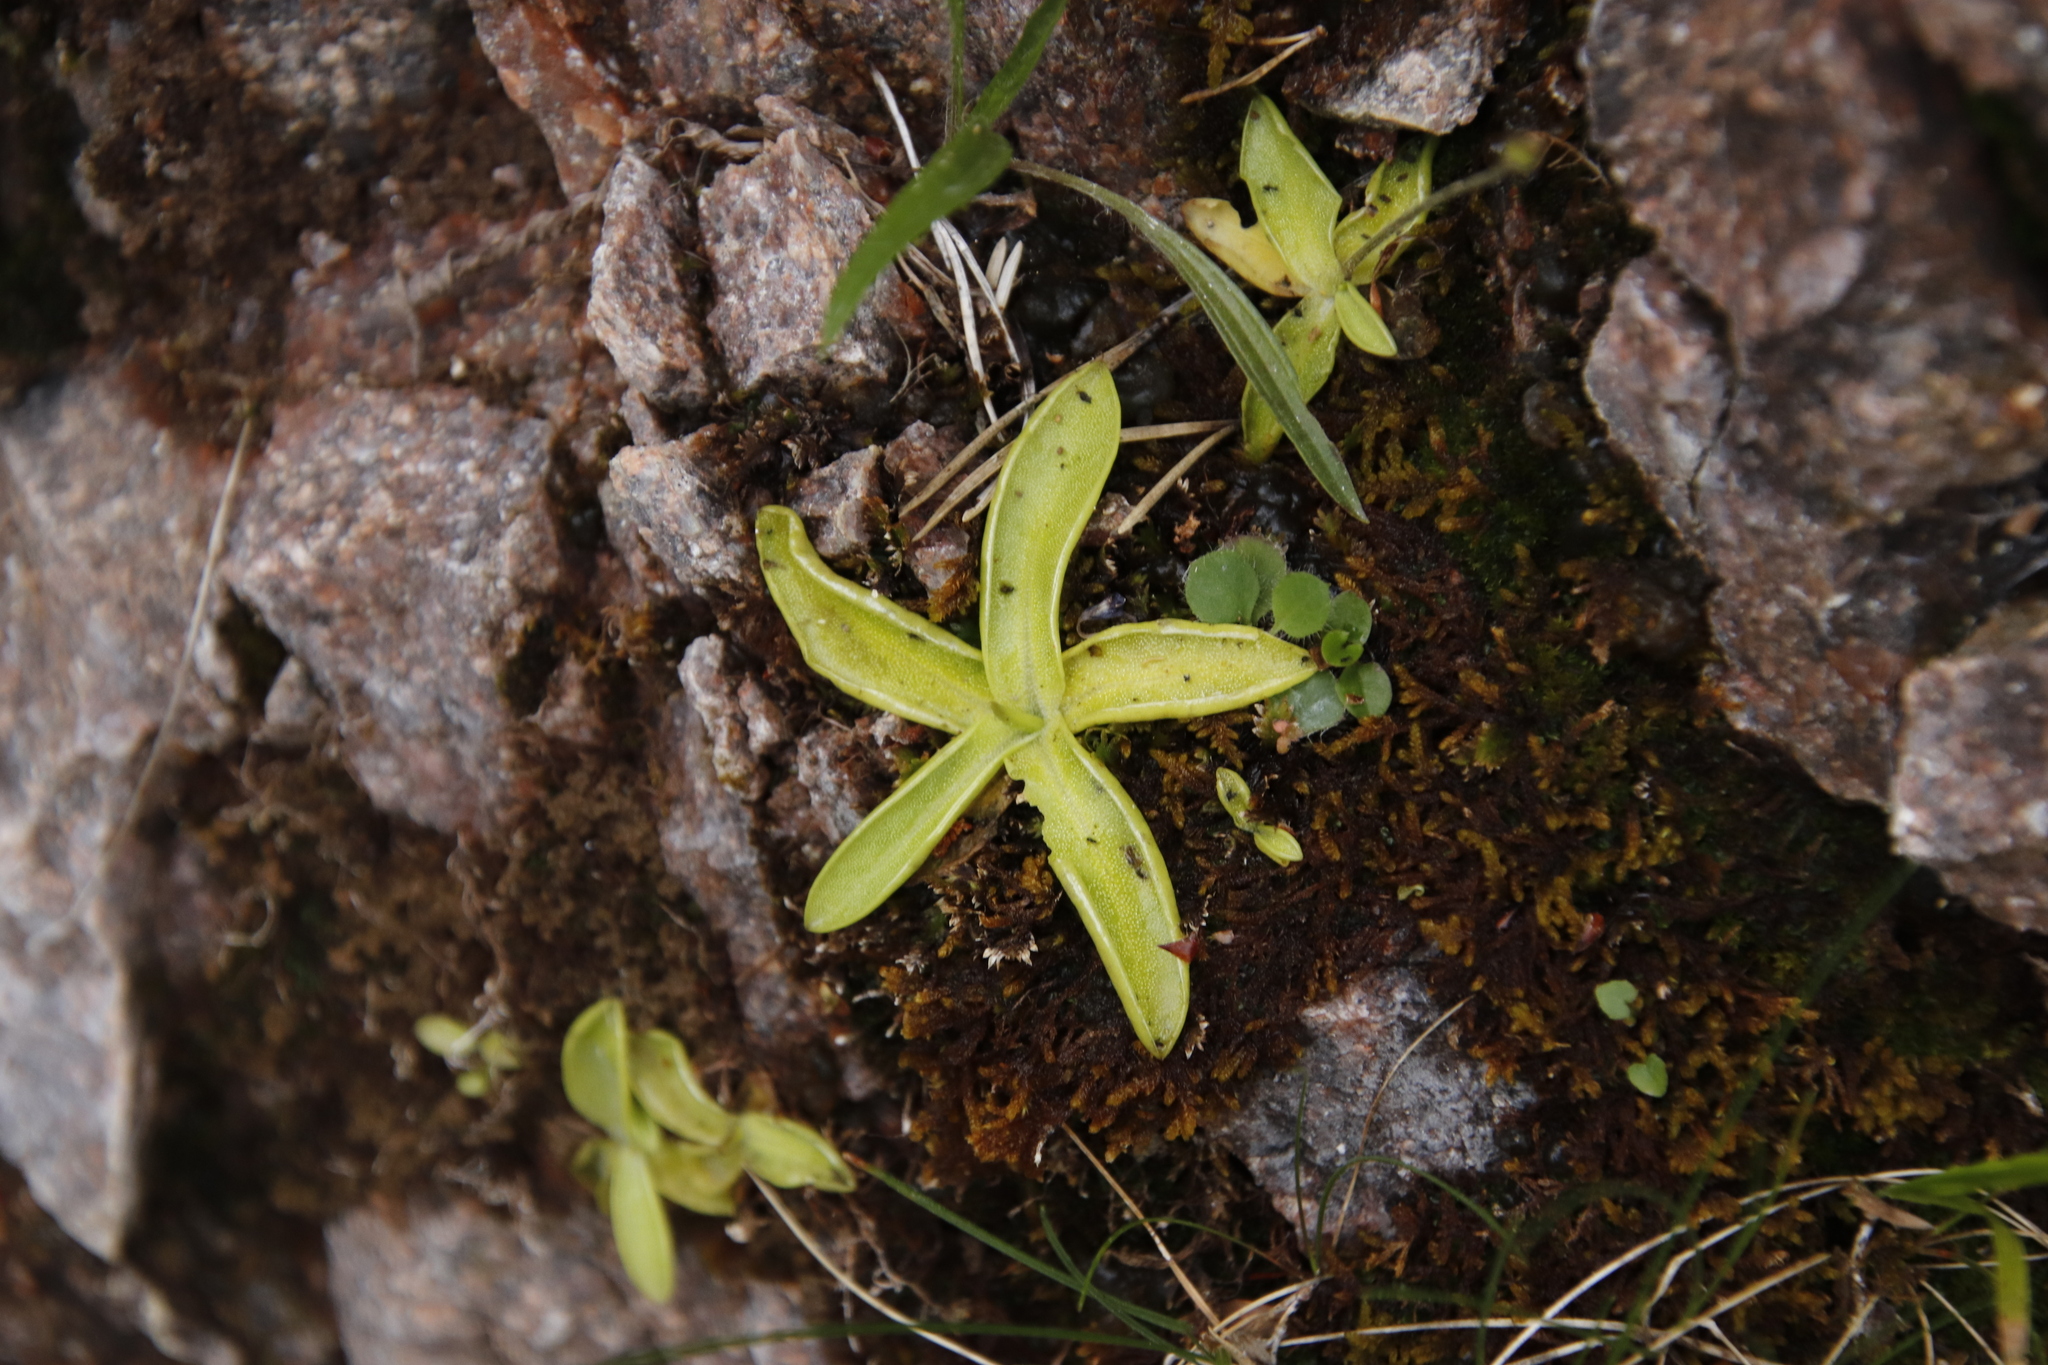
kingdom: Plantae
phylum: Tracheophyta
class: Magnoliopsida
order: Lamiales
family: Lentibulariaceae
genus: Pinguicula
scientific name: Pinguicula vulgaris
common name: Common butterwort
